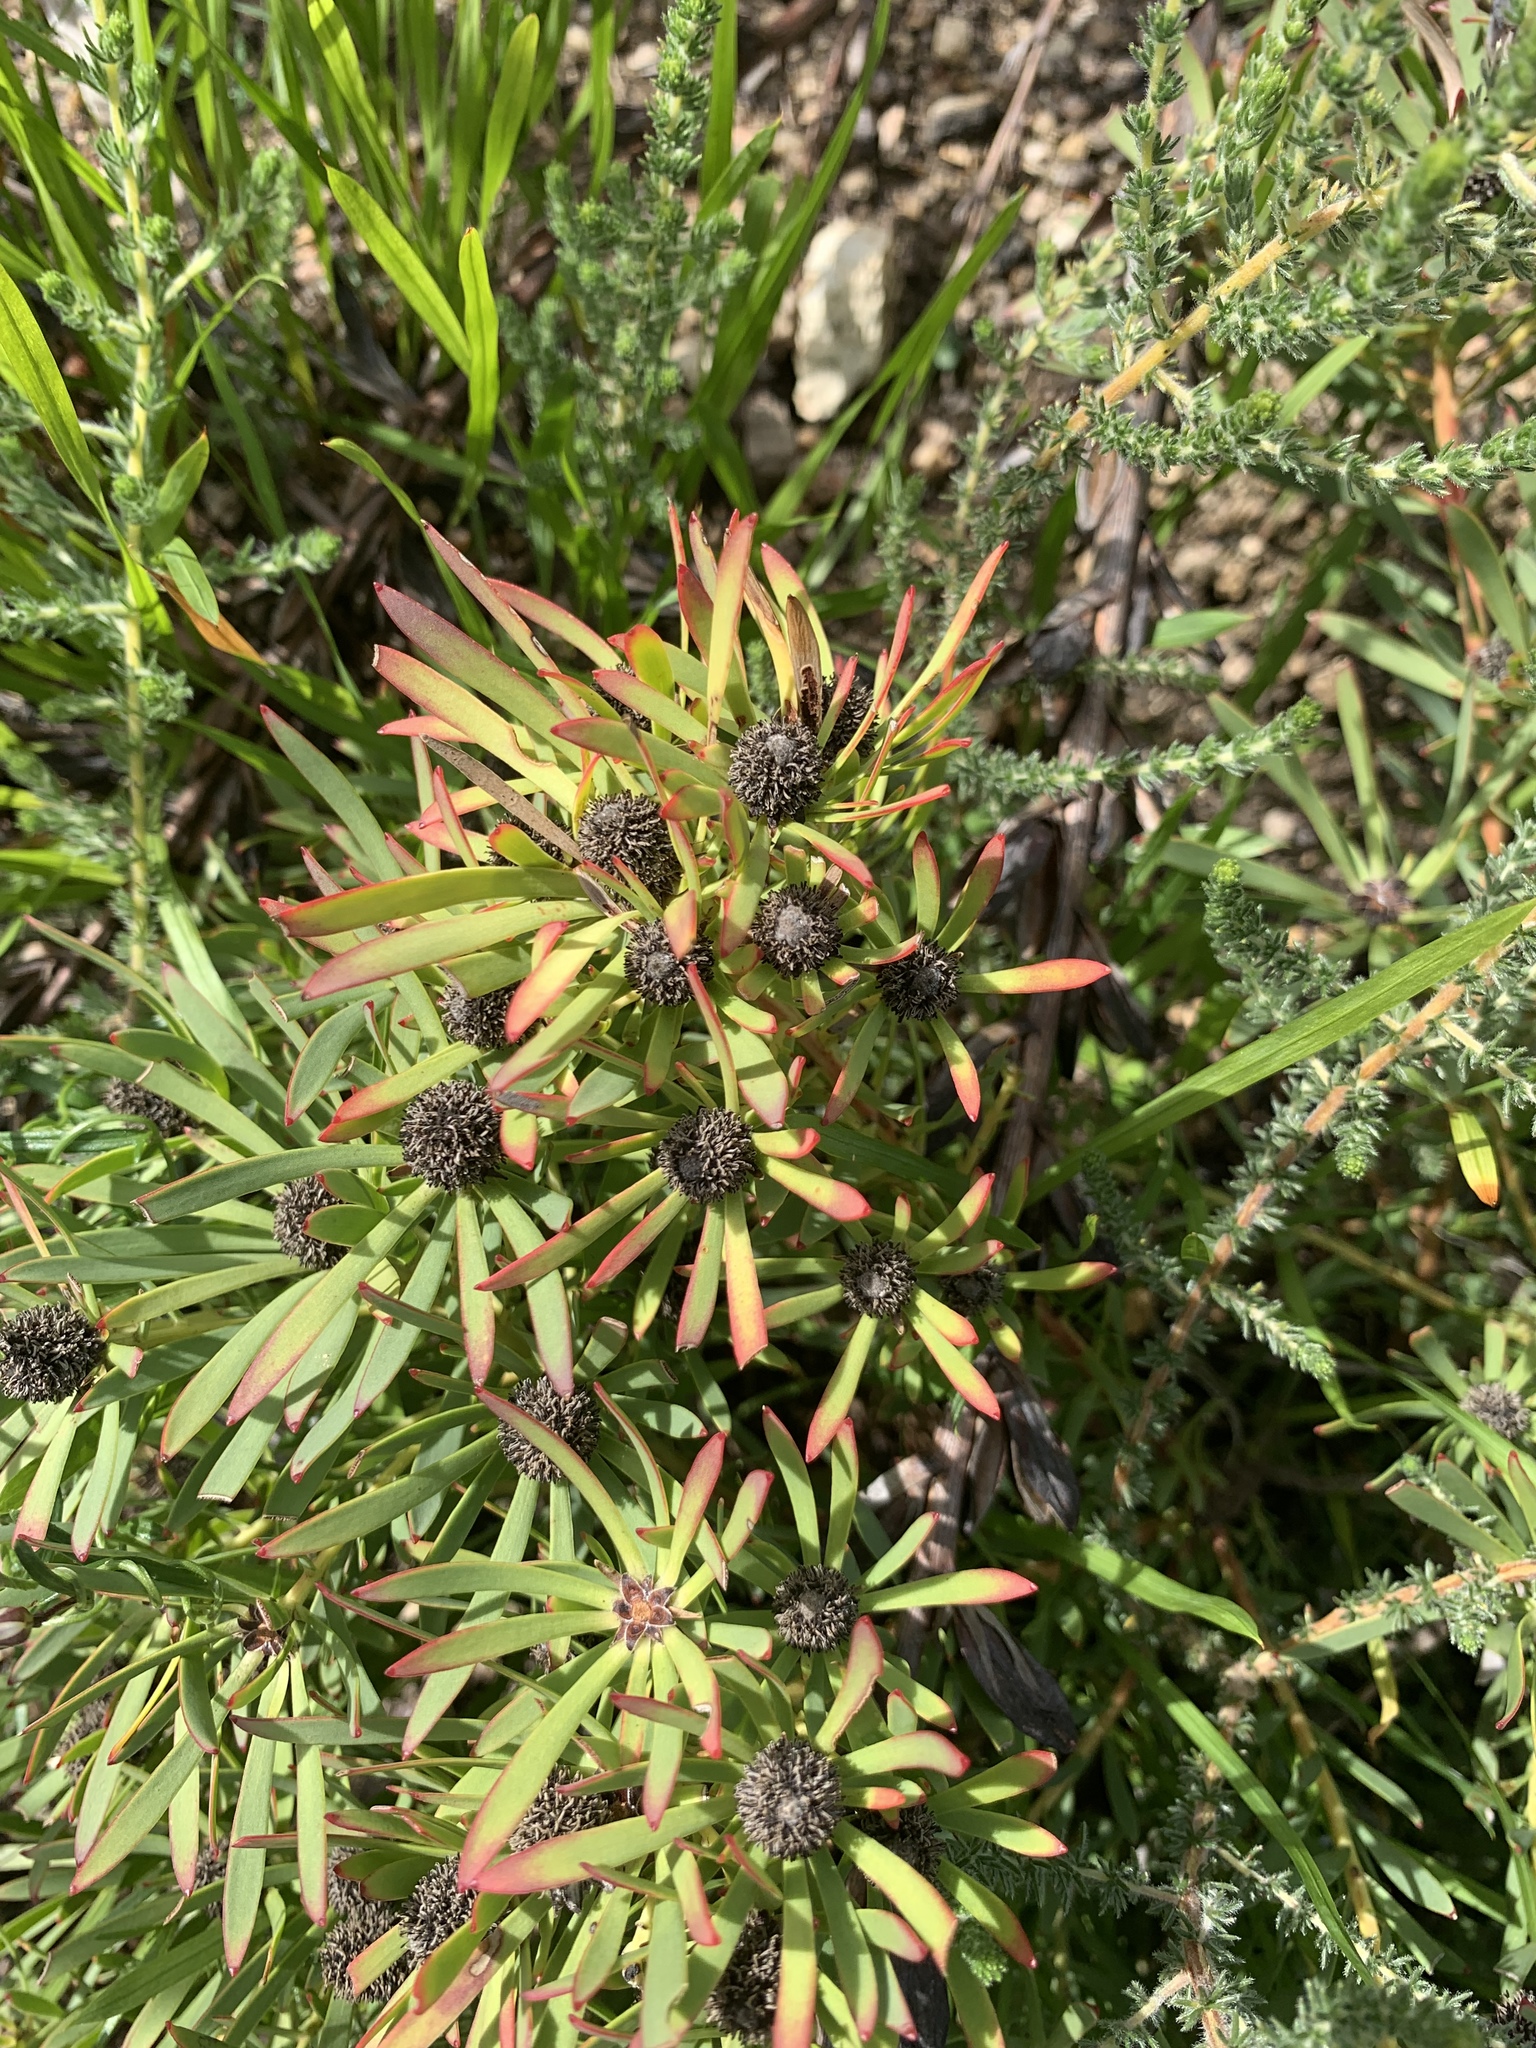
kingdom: Plantae
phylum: Tracheophyta
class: Magnoliopsida
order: Proteales
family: Proteaceae
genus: Leucadendron
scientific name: Leucadendron salignum
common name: Common sunshine conebush
